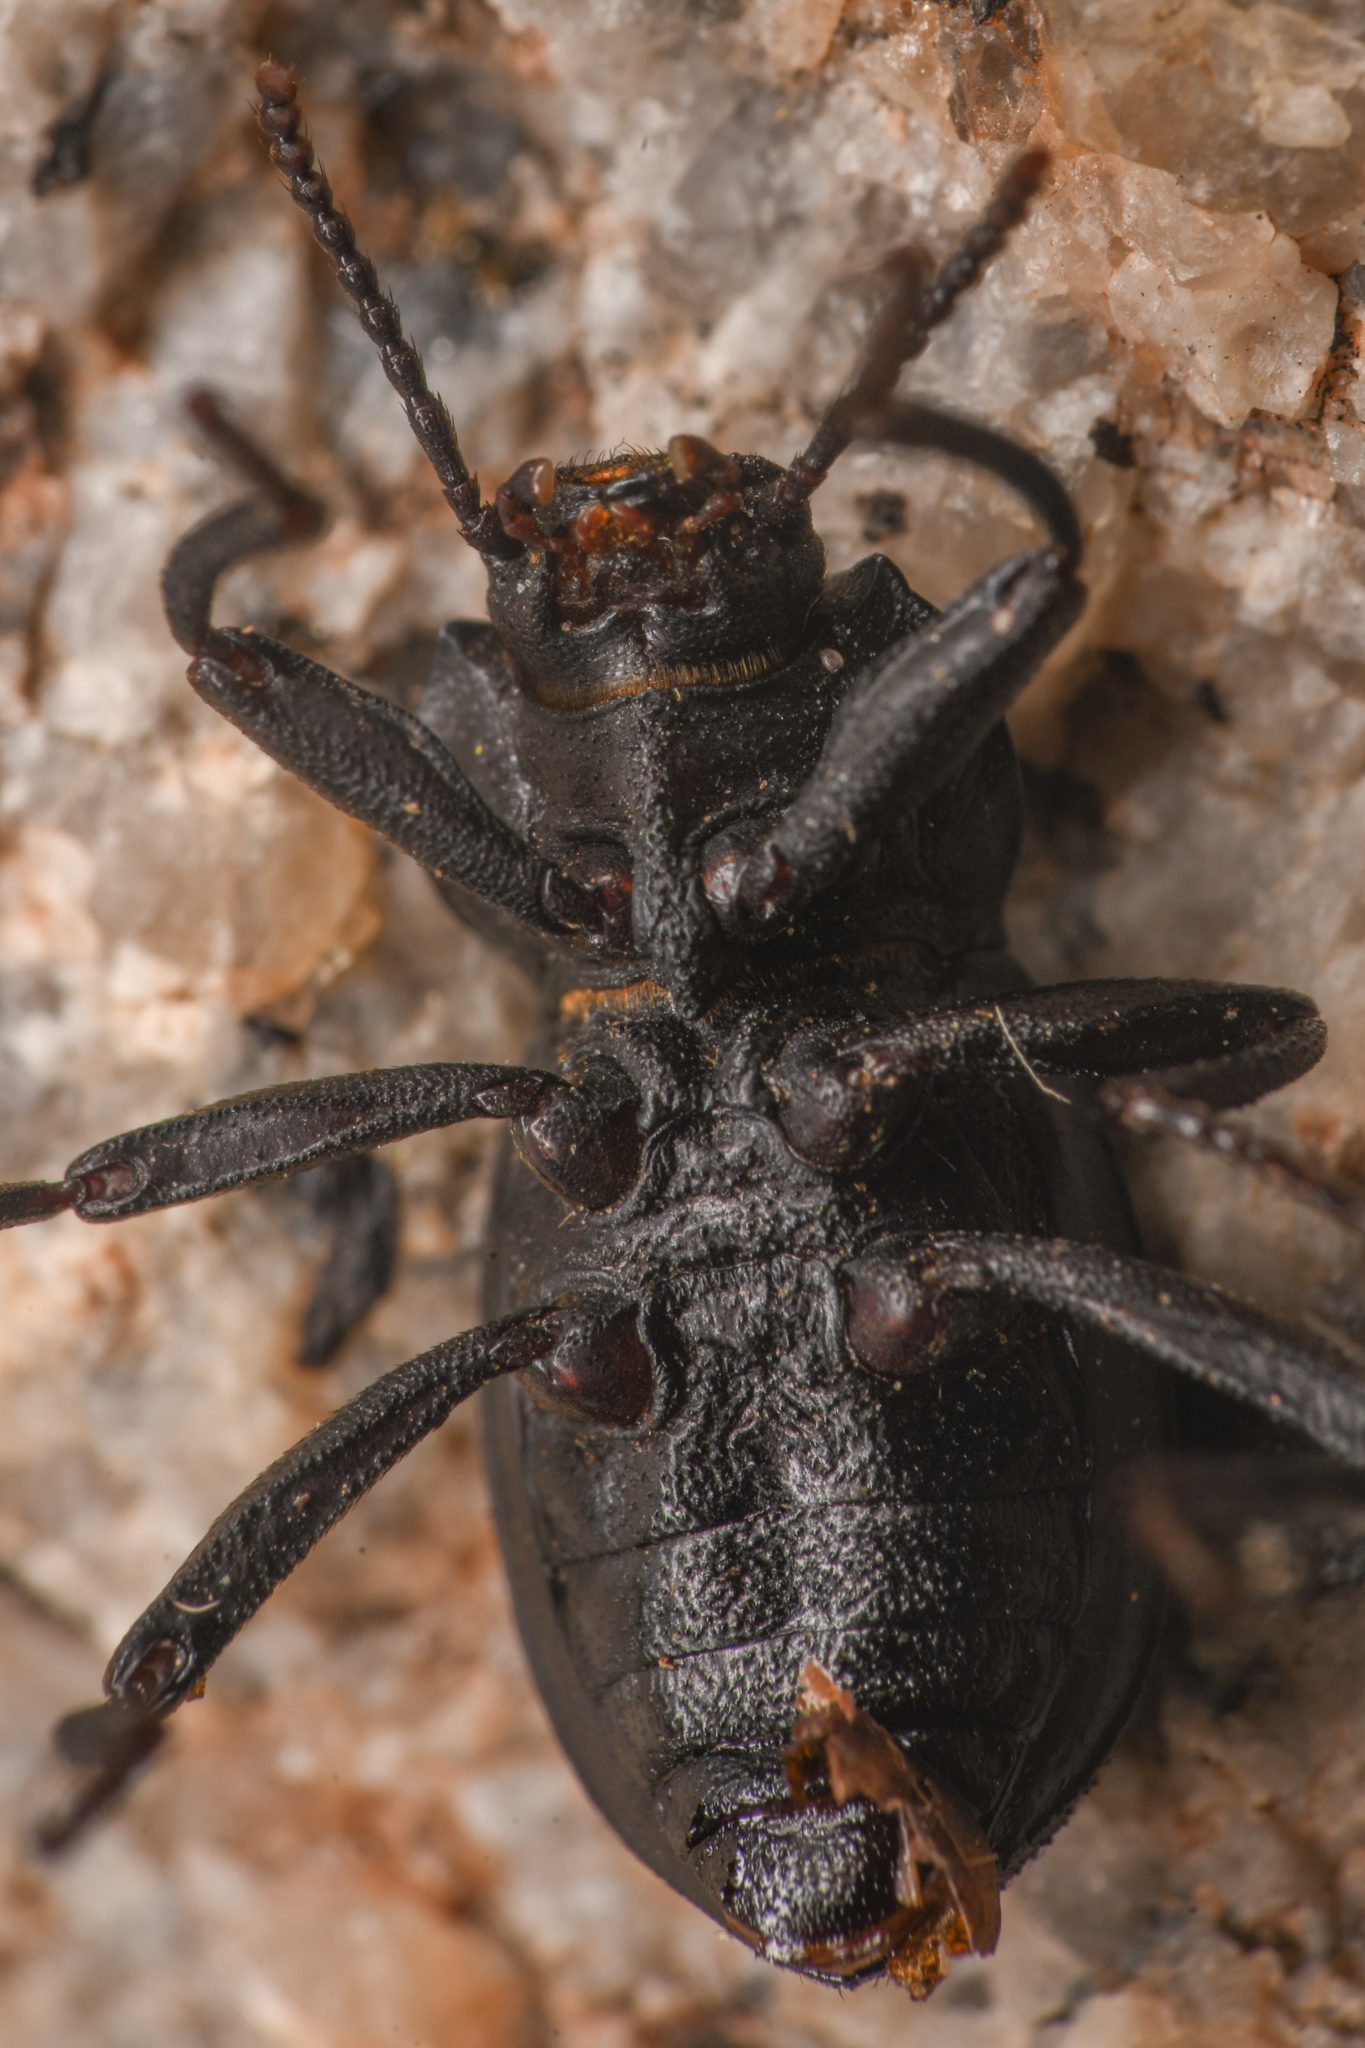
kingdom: Animalia
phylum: Arthropoda
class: Insecta
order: Coleoptera
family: Tenebrionidae
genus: Eleodimorpha
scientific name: Eleodimorpha bolcan
